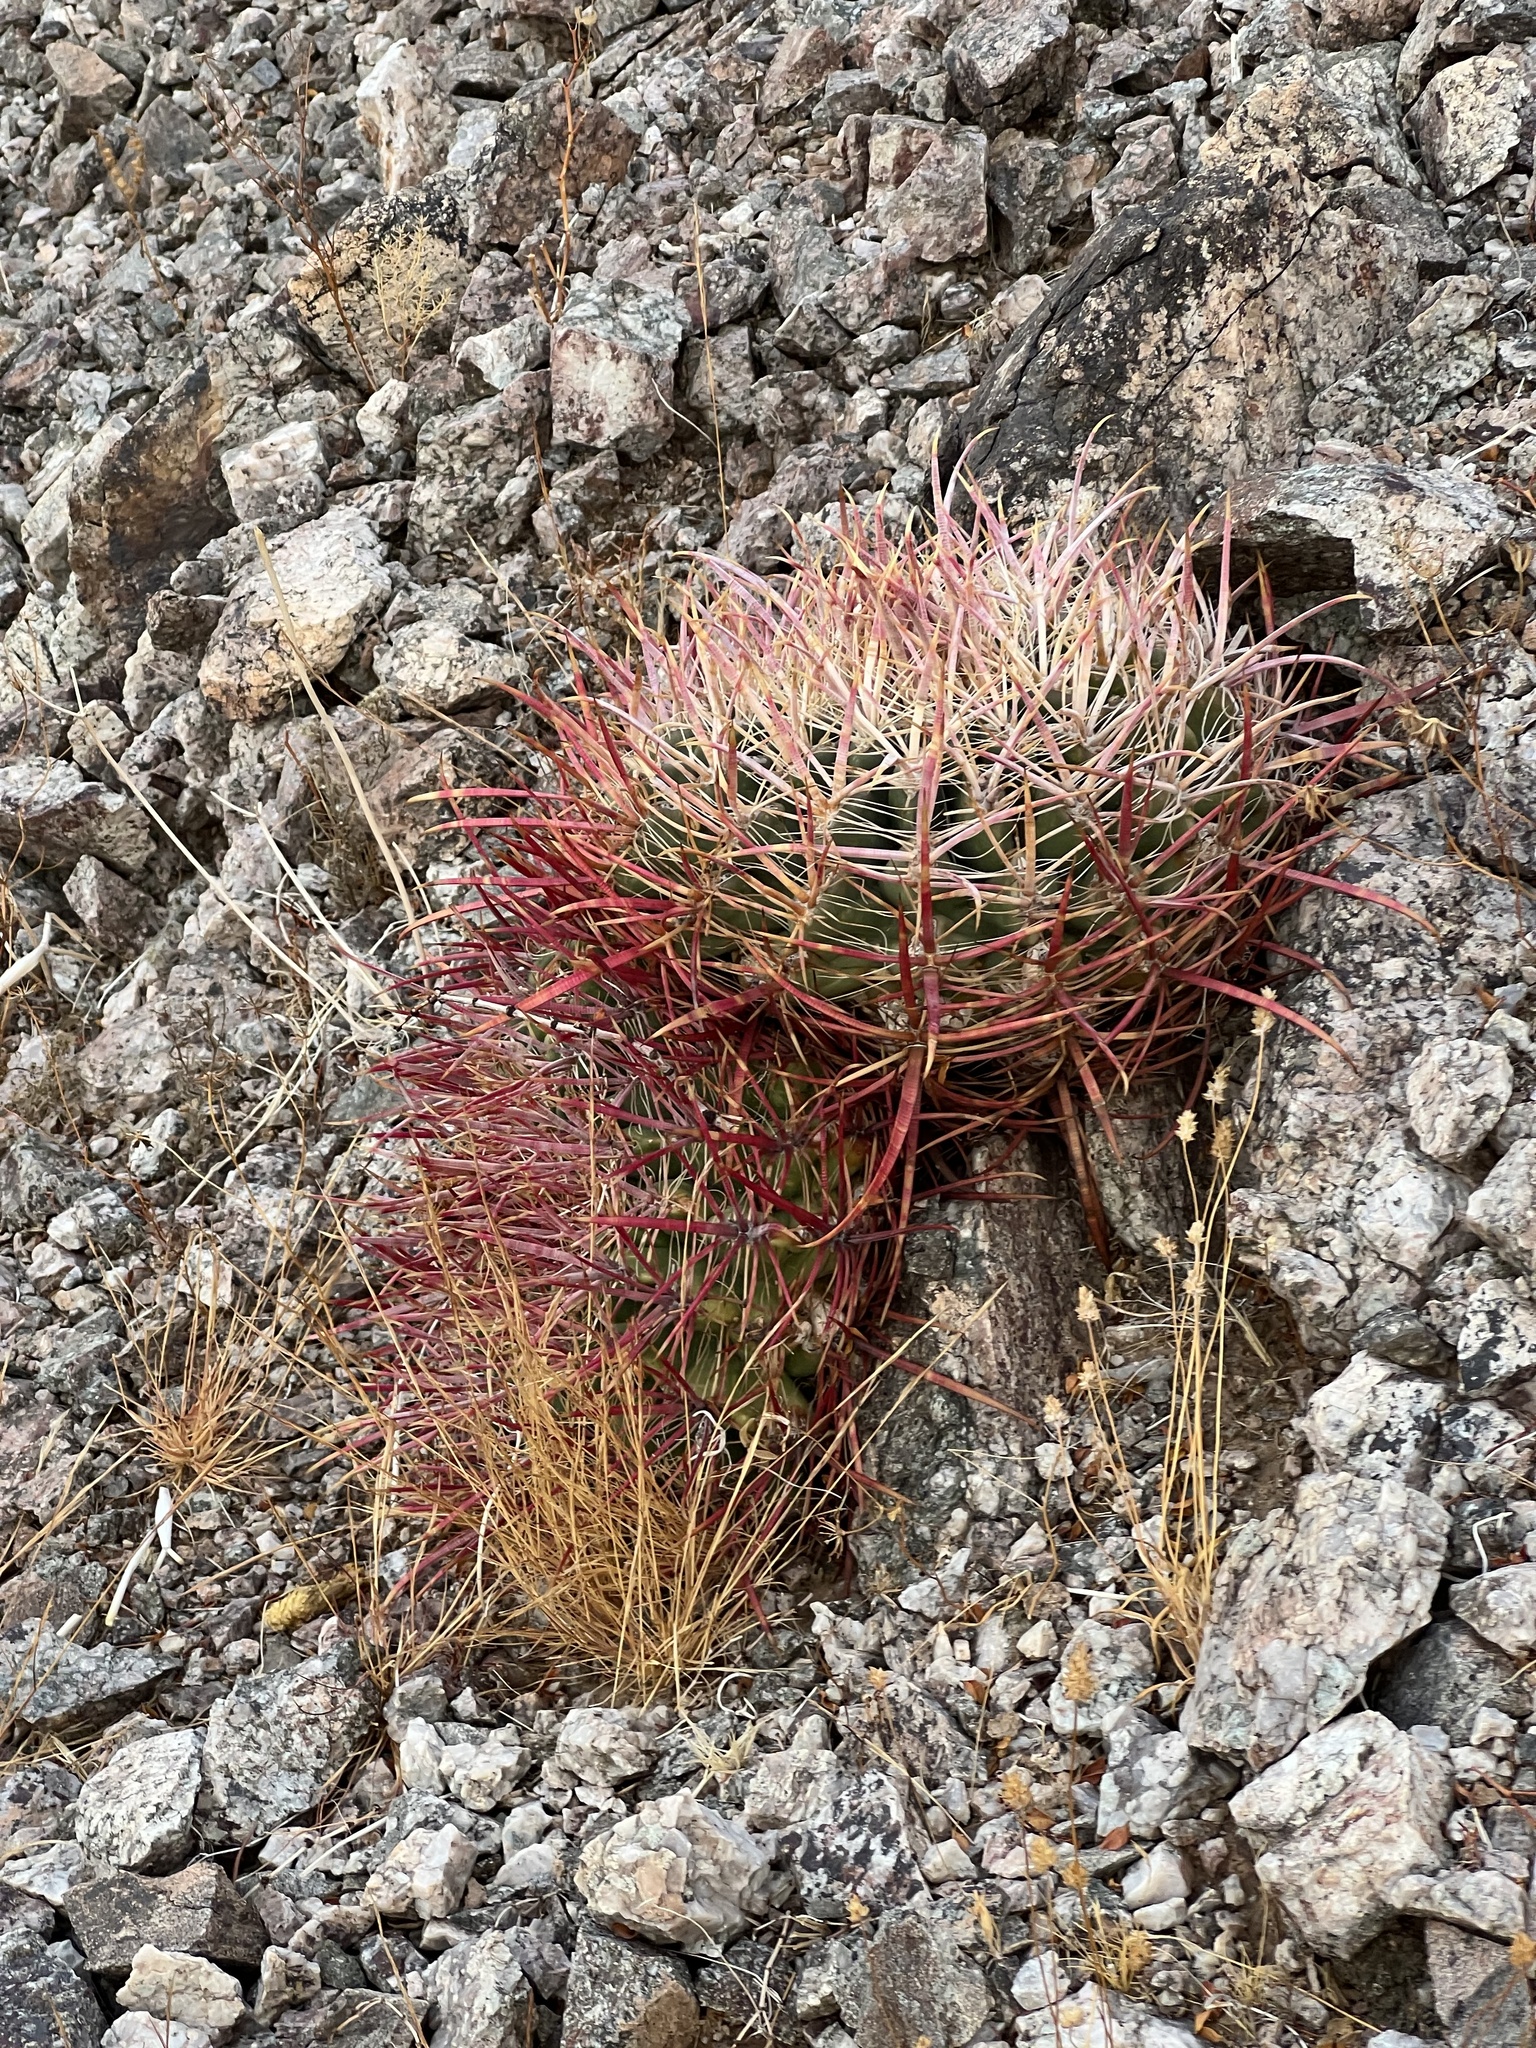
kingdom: Plantae
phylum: Tracheophyta
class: Magnoliopsida
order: Caryophyllales
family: Cactaceae
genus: Ferocactus
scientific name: Ferocactus cylindraceus
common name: California barrel cactus
